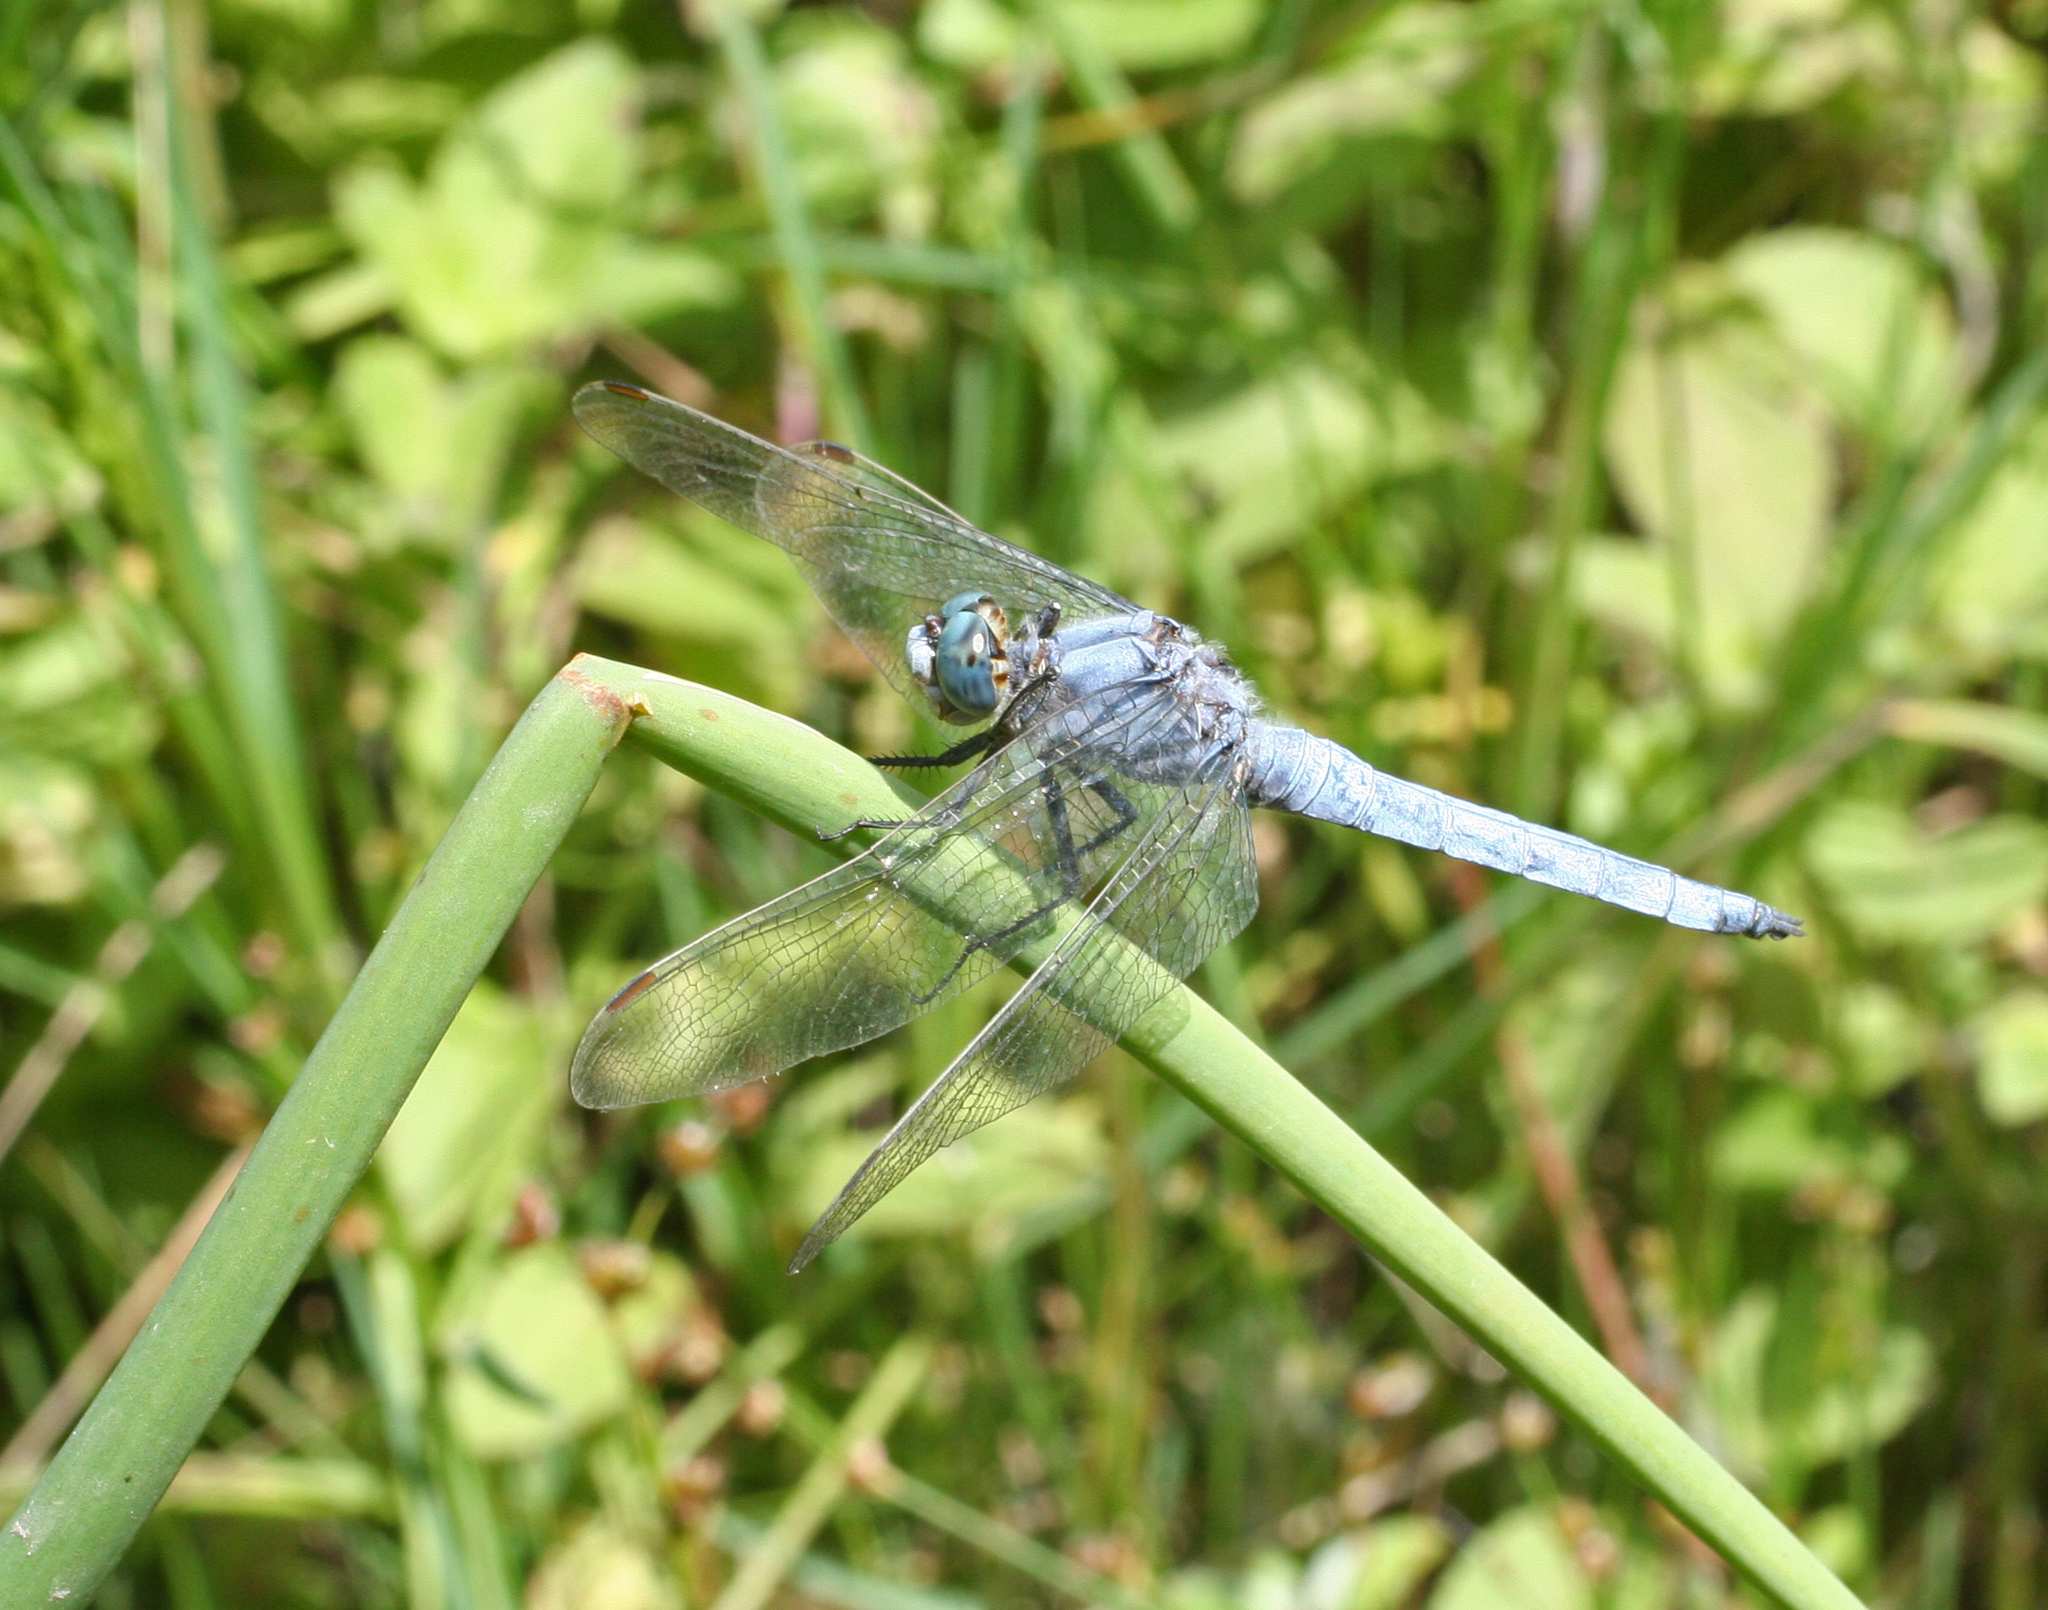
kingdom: Animalia
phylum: Arthropoda
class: Insecta
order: Odonata
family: Libellulidae
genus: Orthetrum
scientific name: Orthetrum brunneum
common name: Southern skimmer
